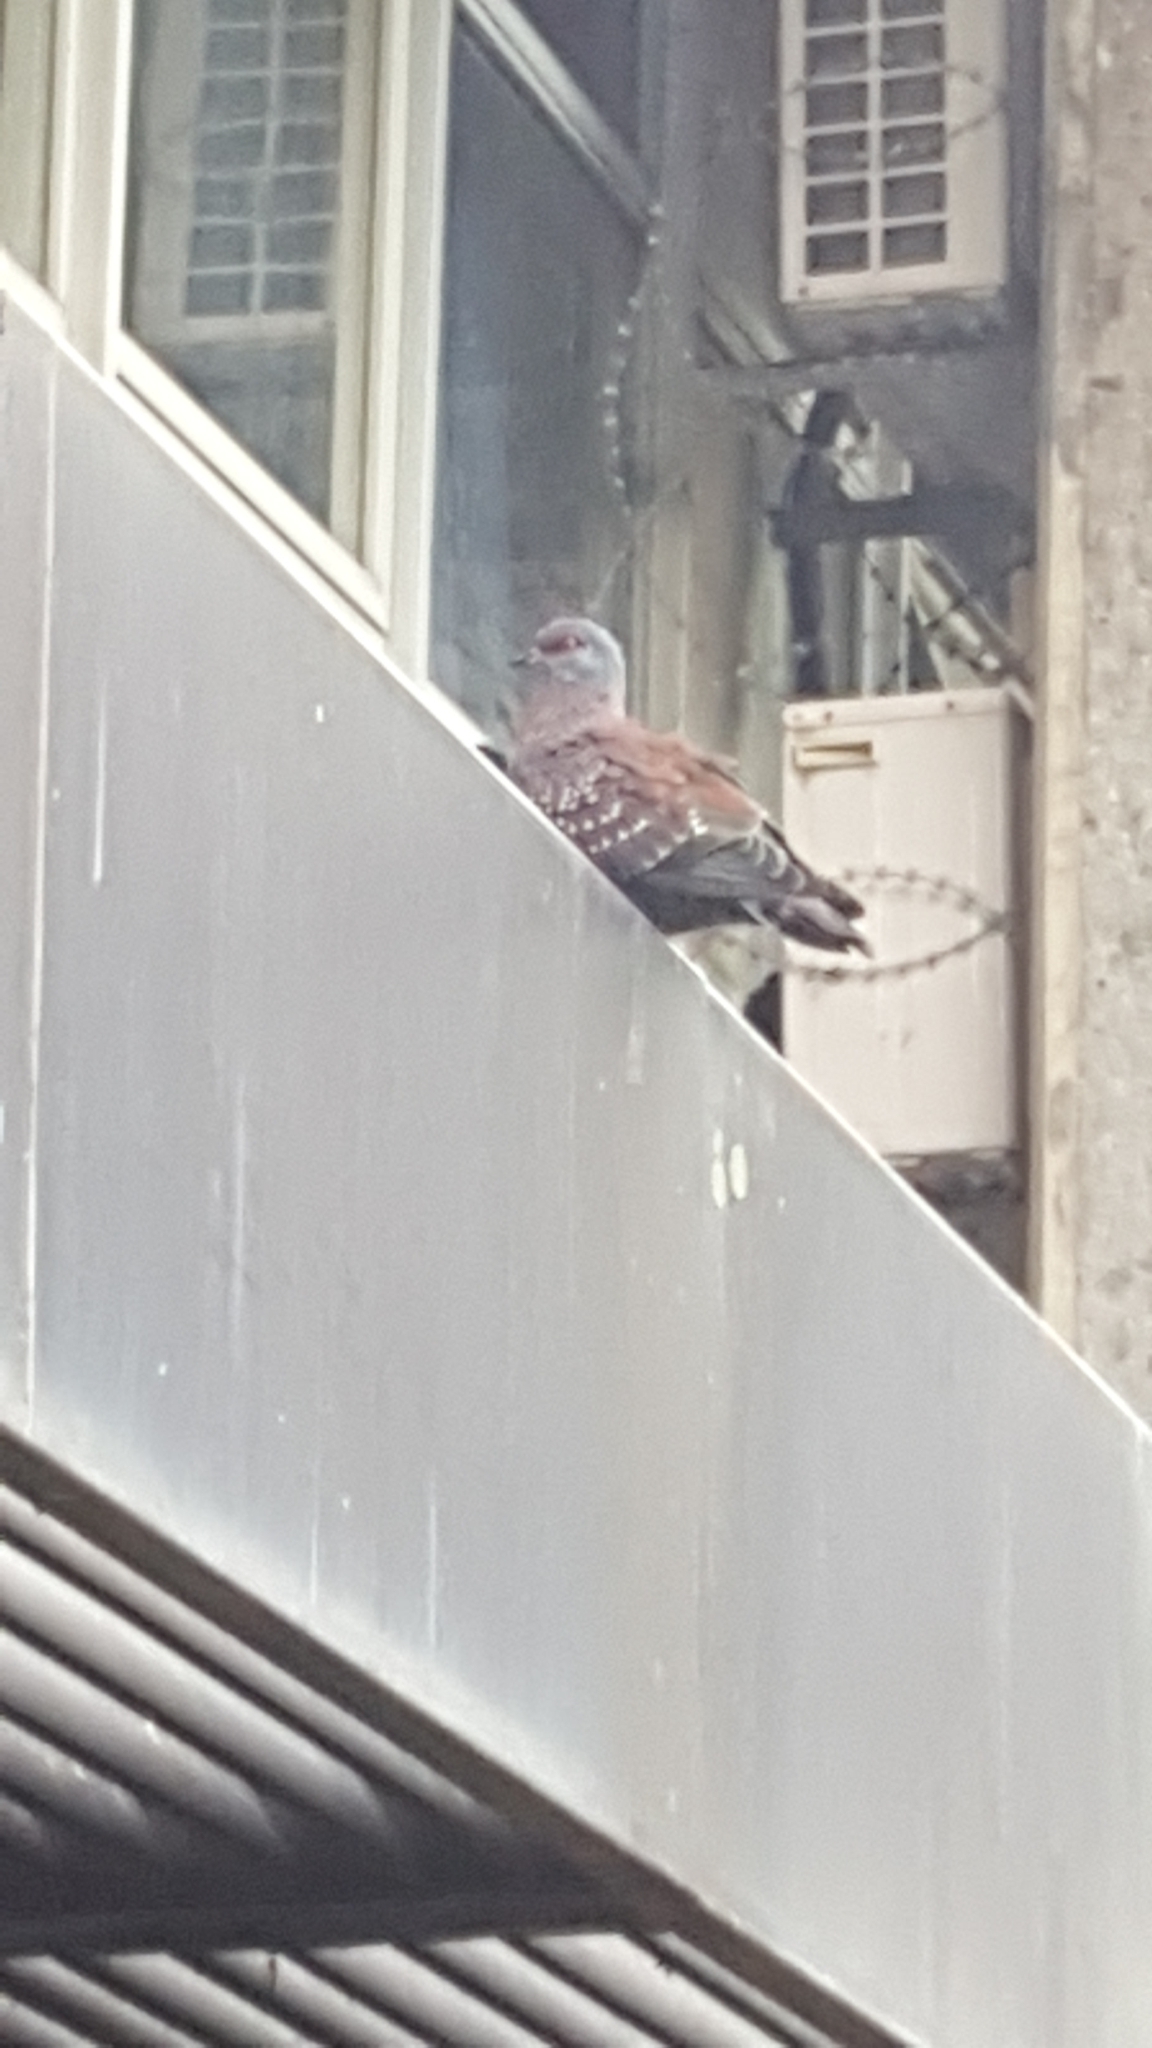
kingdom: Animalia
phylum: Chordata
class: Aves
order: Columbiformes
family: Columbidae
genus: Columba
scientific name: Columba guinea
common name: Speckled pigeon
